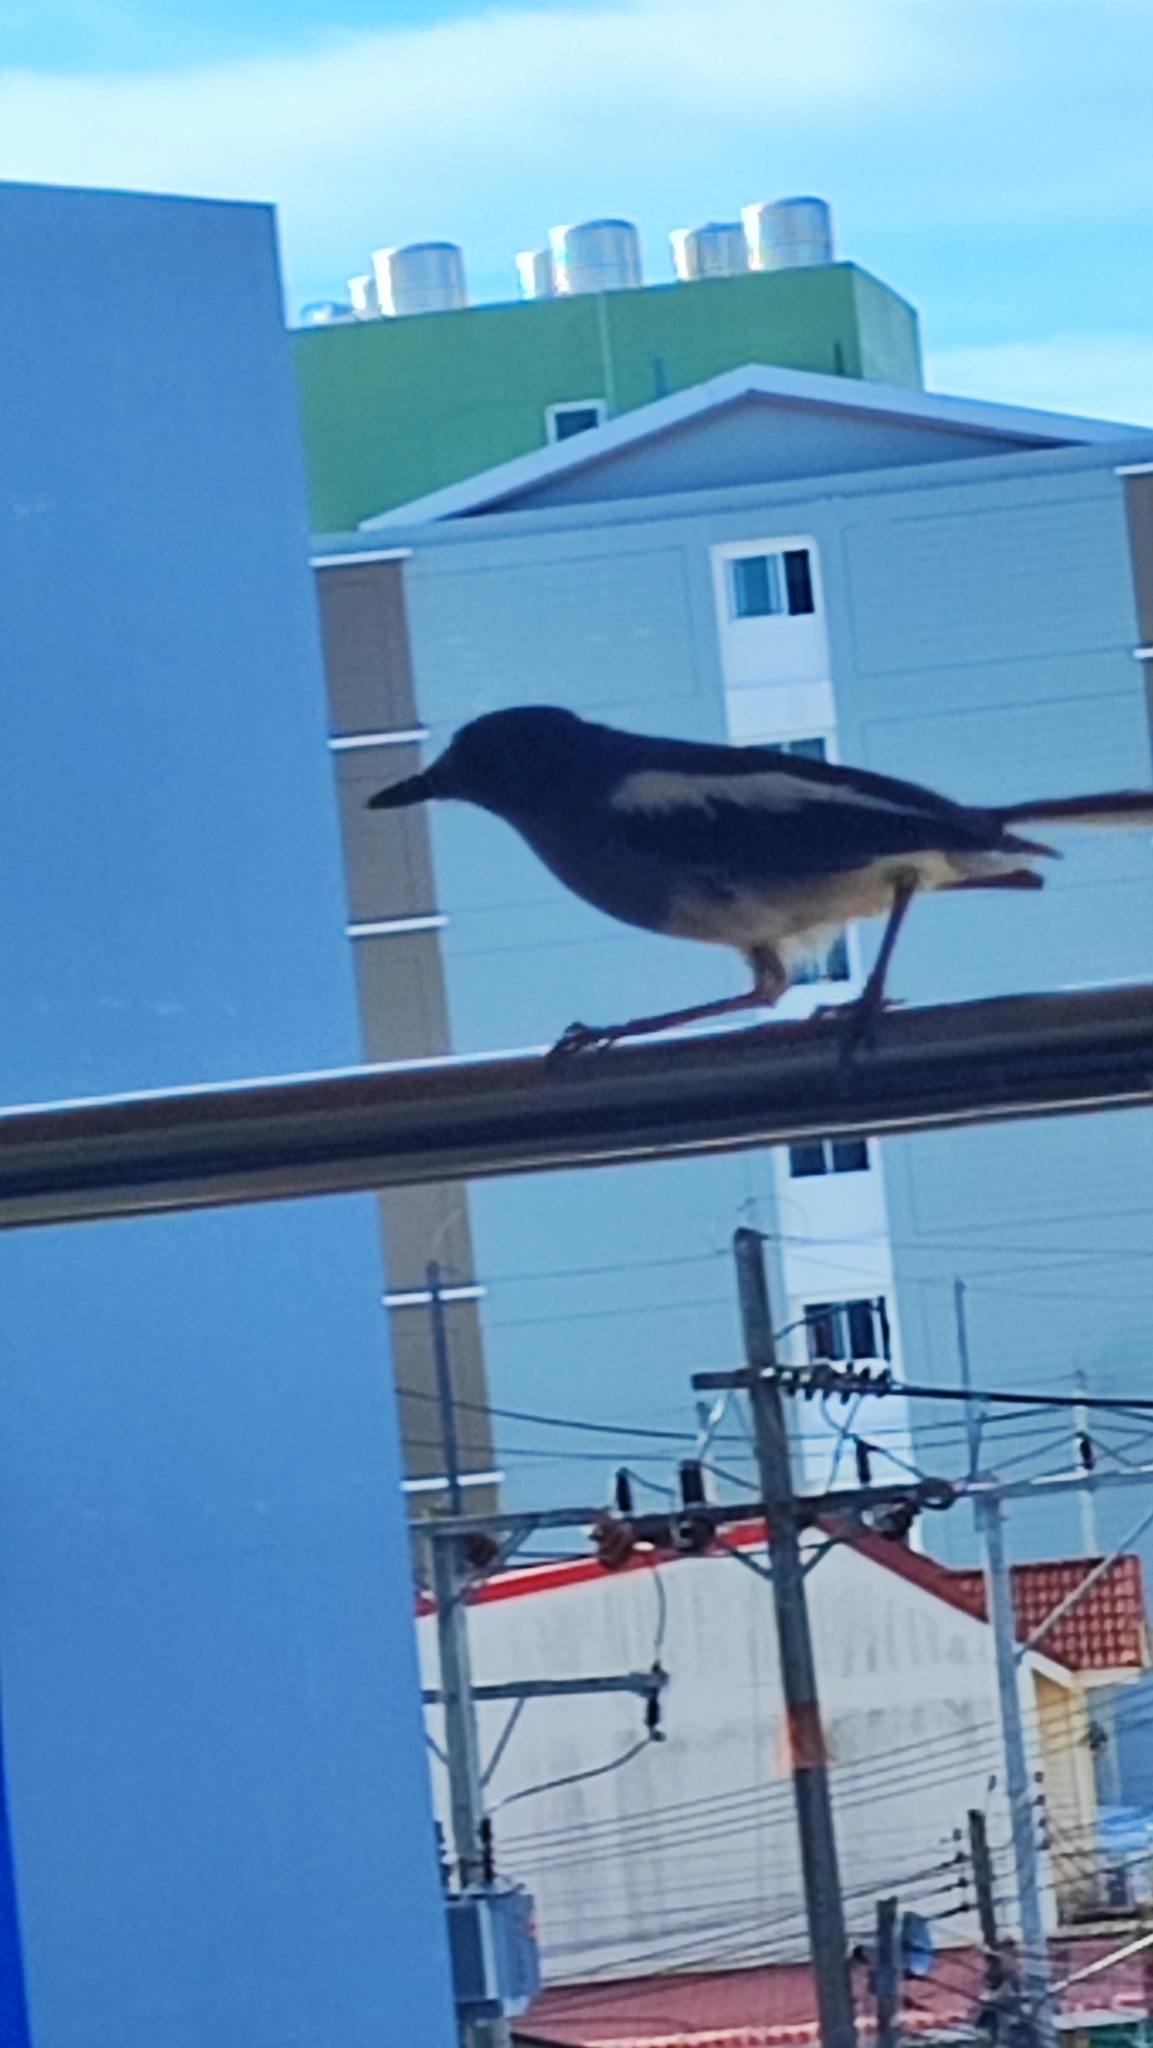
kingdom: Animalia
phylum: Chordata
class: Aves
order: Passeriformes
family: Muscicapidae
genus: Copsychus
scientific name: Copsychus saularis
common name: Oriental magpie-robin
